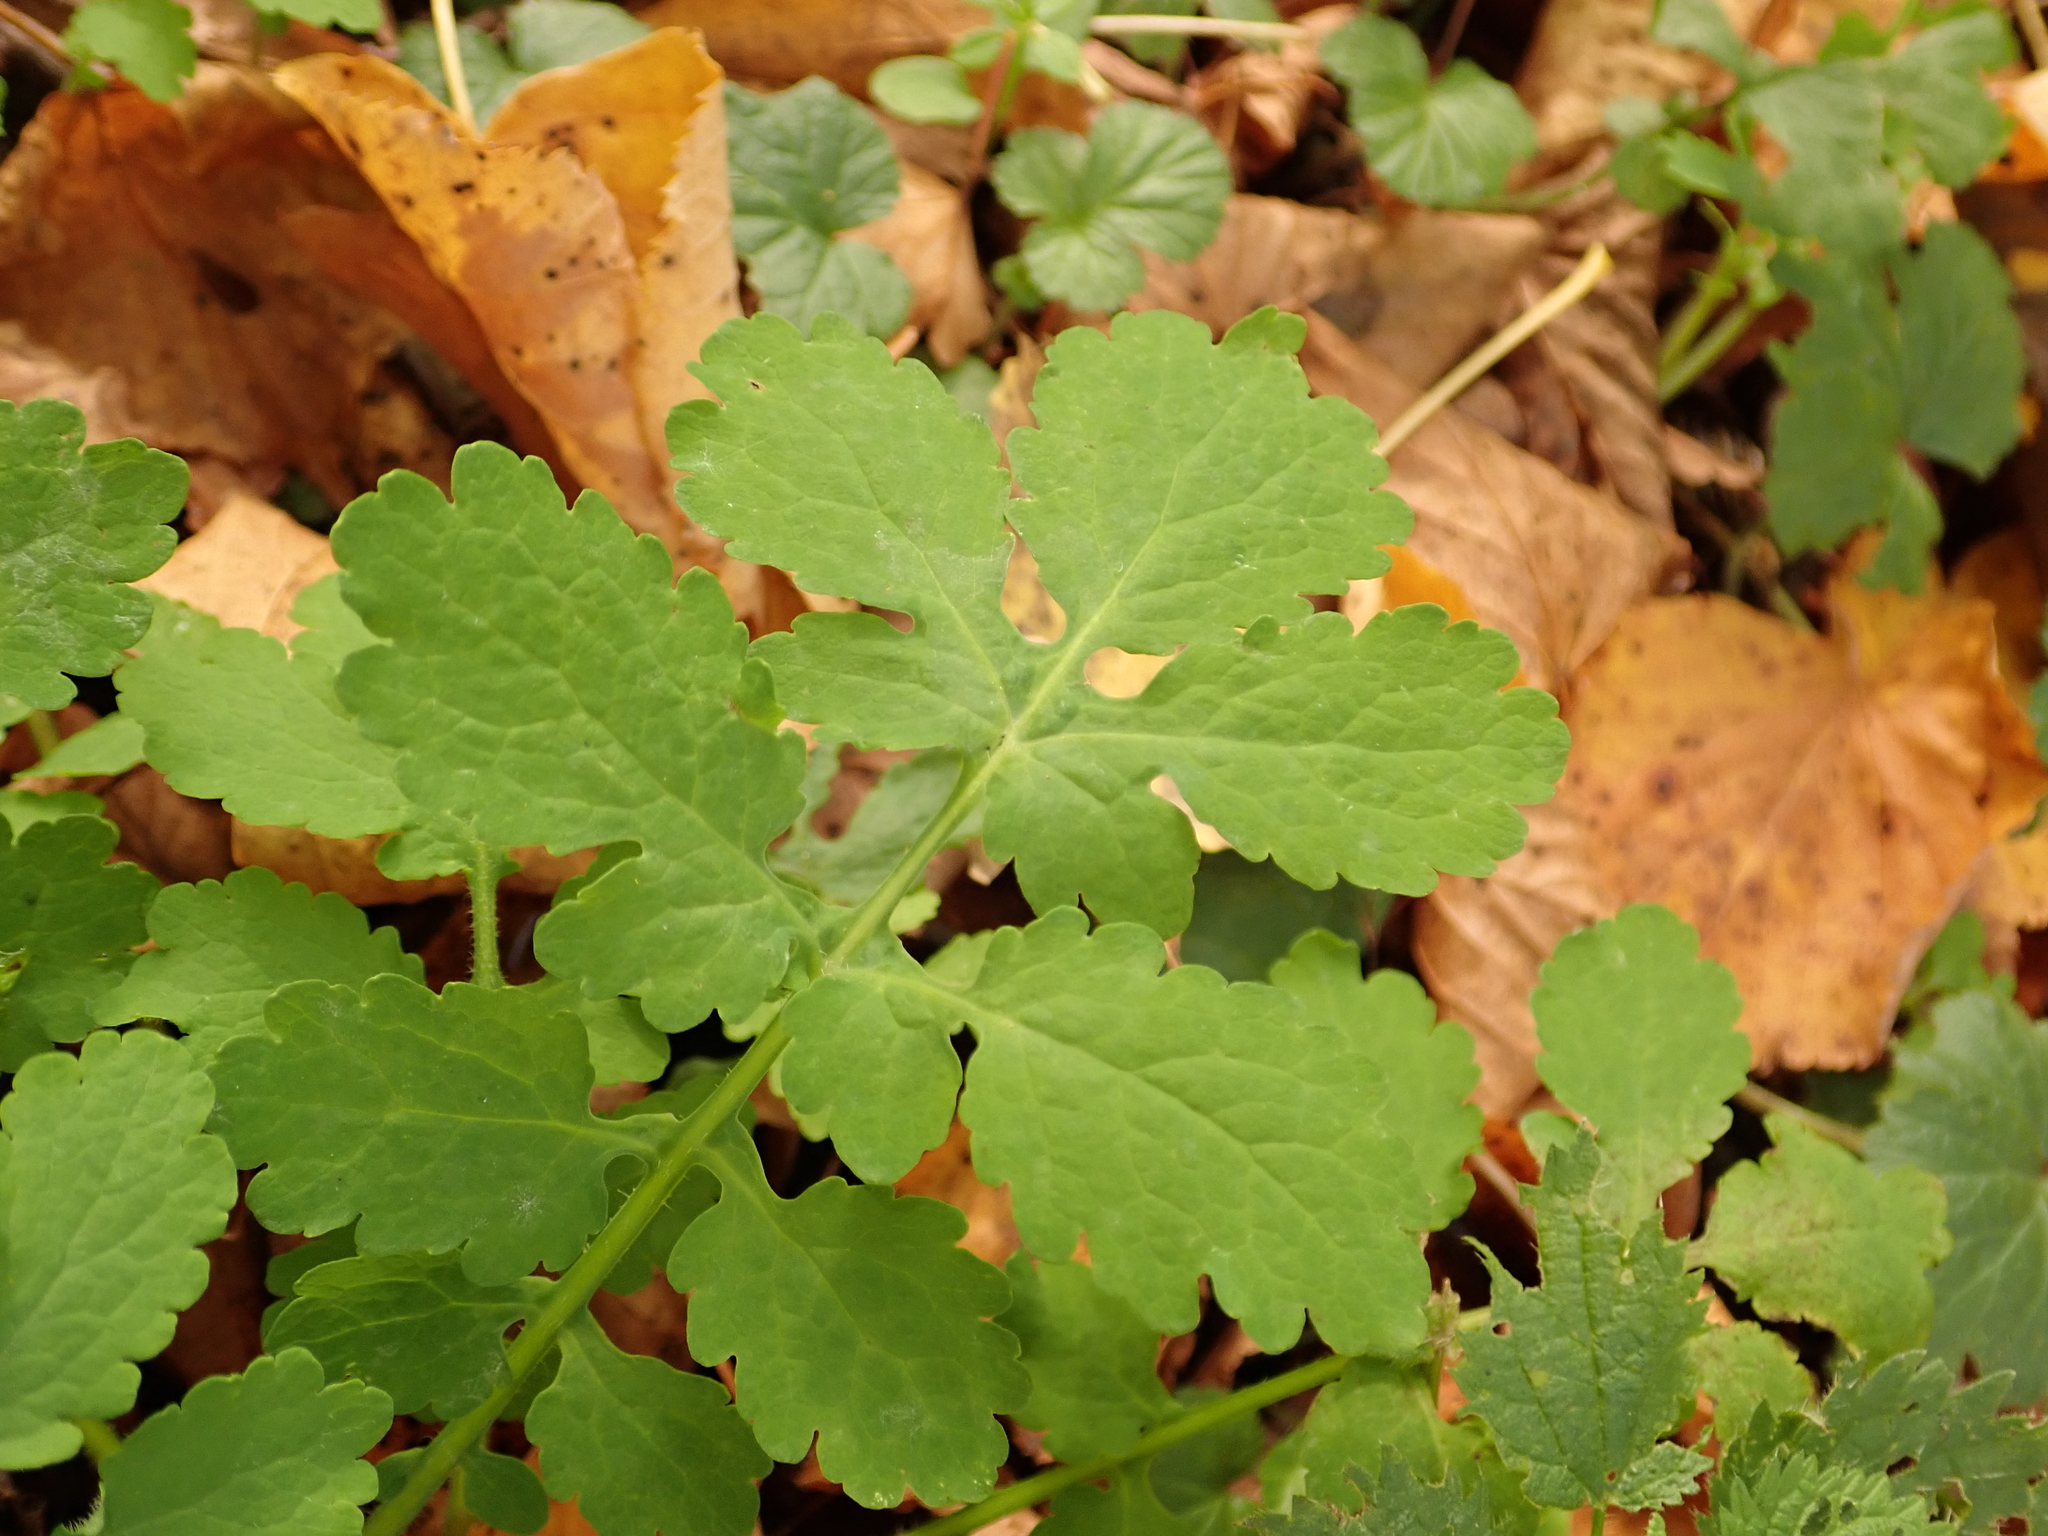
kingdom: Plantae
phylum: Tracheophyta
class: Magnoliopsida
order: Ranunculales
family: Papaveraceae
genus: Chelidonium
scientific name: Chelidonium majus
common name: Greater celandine
